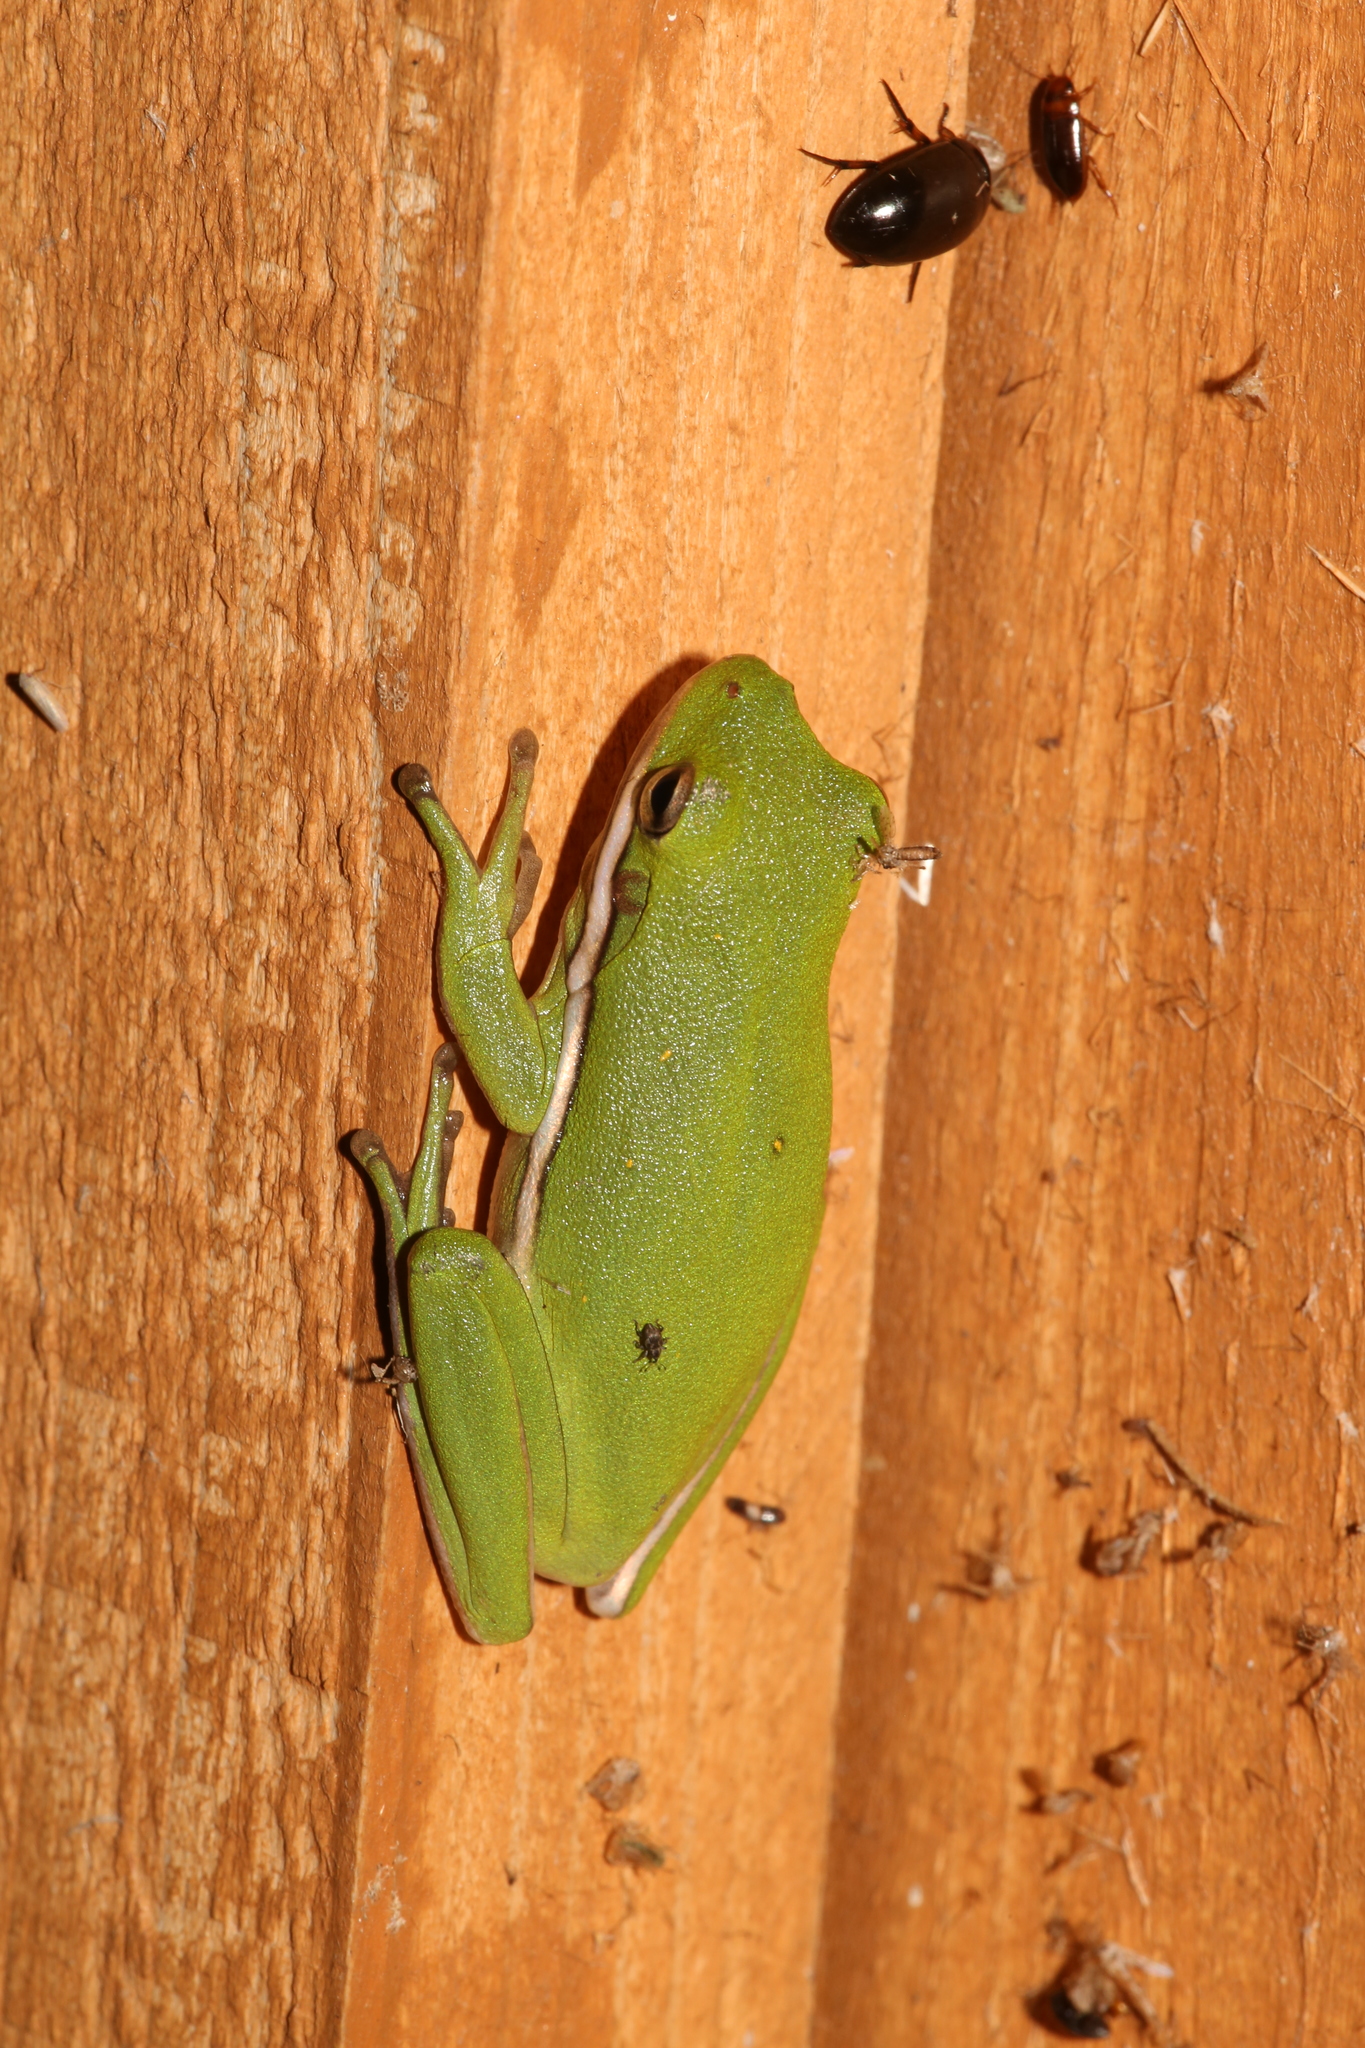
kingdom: Animalia
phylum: Chordata
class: Amphibia
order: Anura
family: Hylidae
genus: Dryophytes
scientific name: Dryophytes cinereus
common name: Green treefrog
